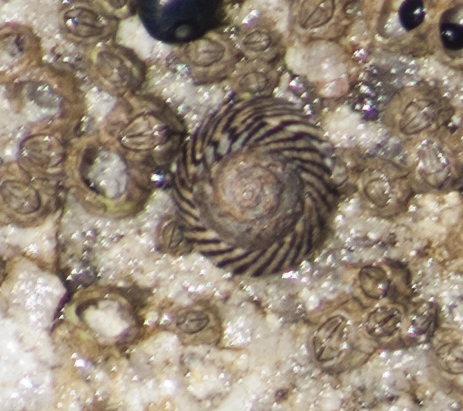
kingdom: Animalia
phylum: Mollusca
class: Gastropoda
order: Littorinimorpha
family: Littorinidae
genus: Bembicium
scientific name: Bembicium nanum
